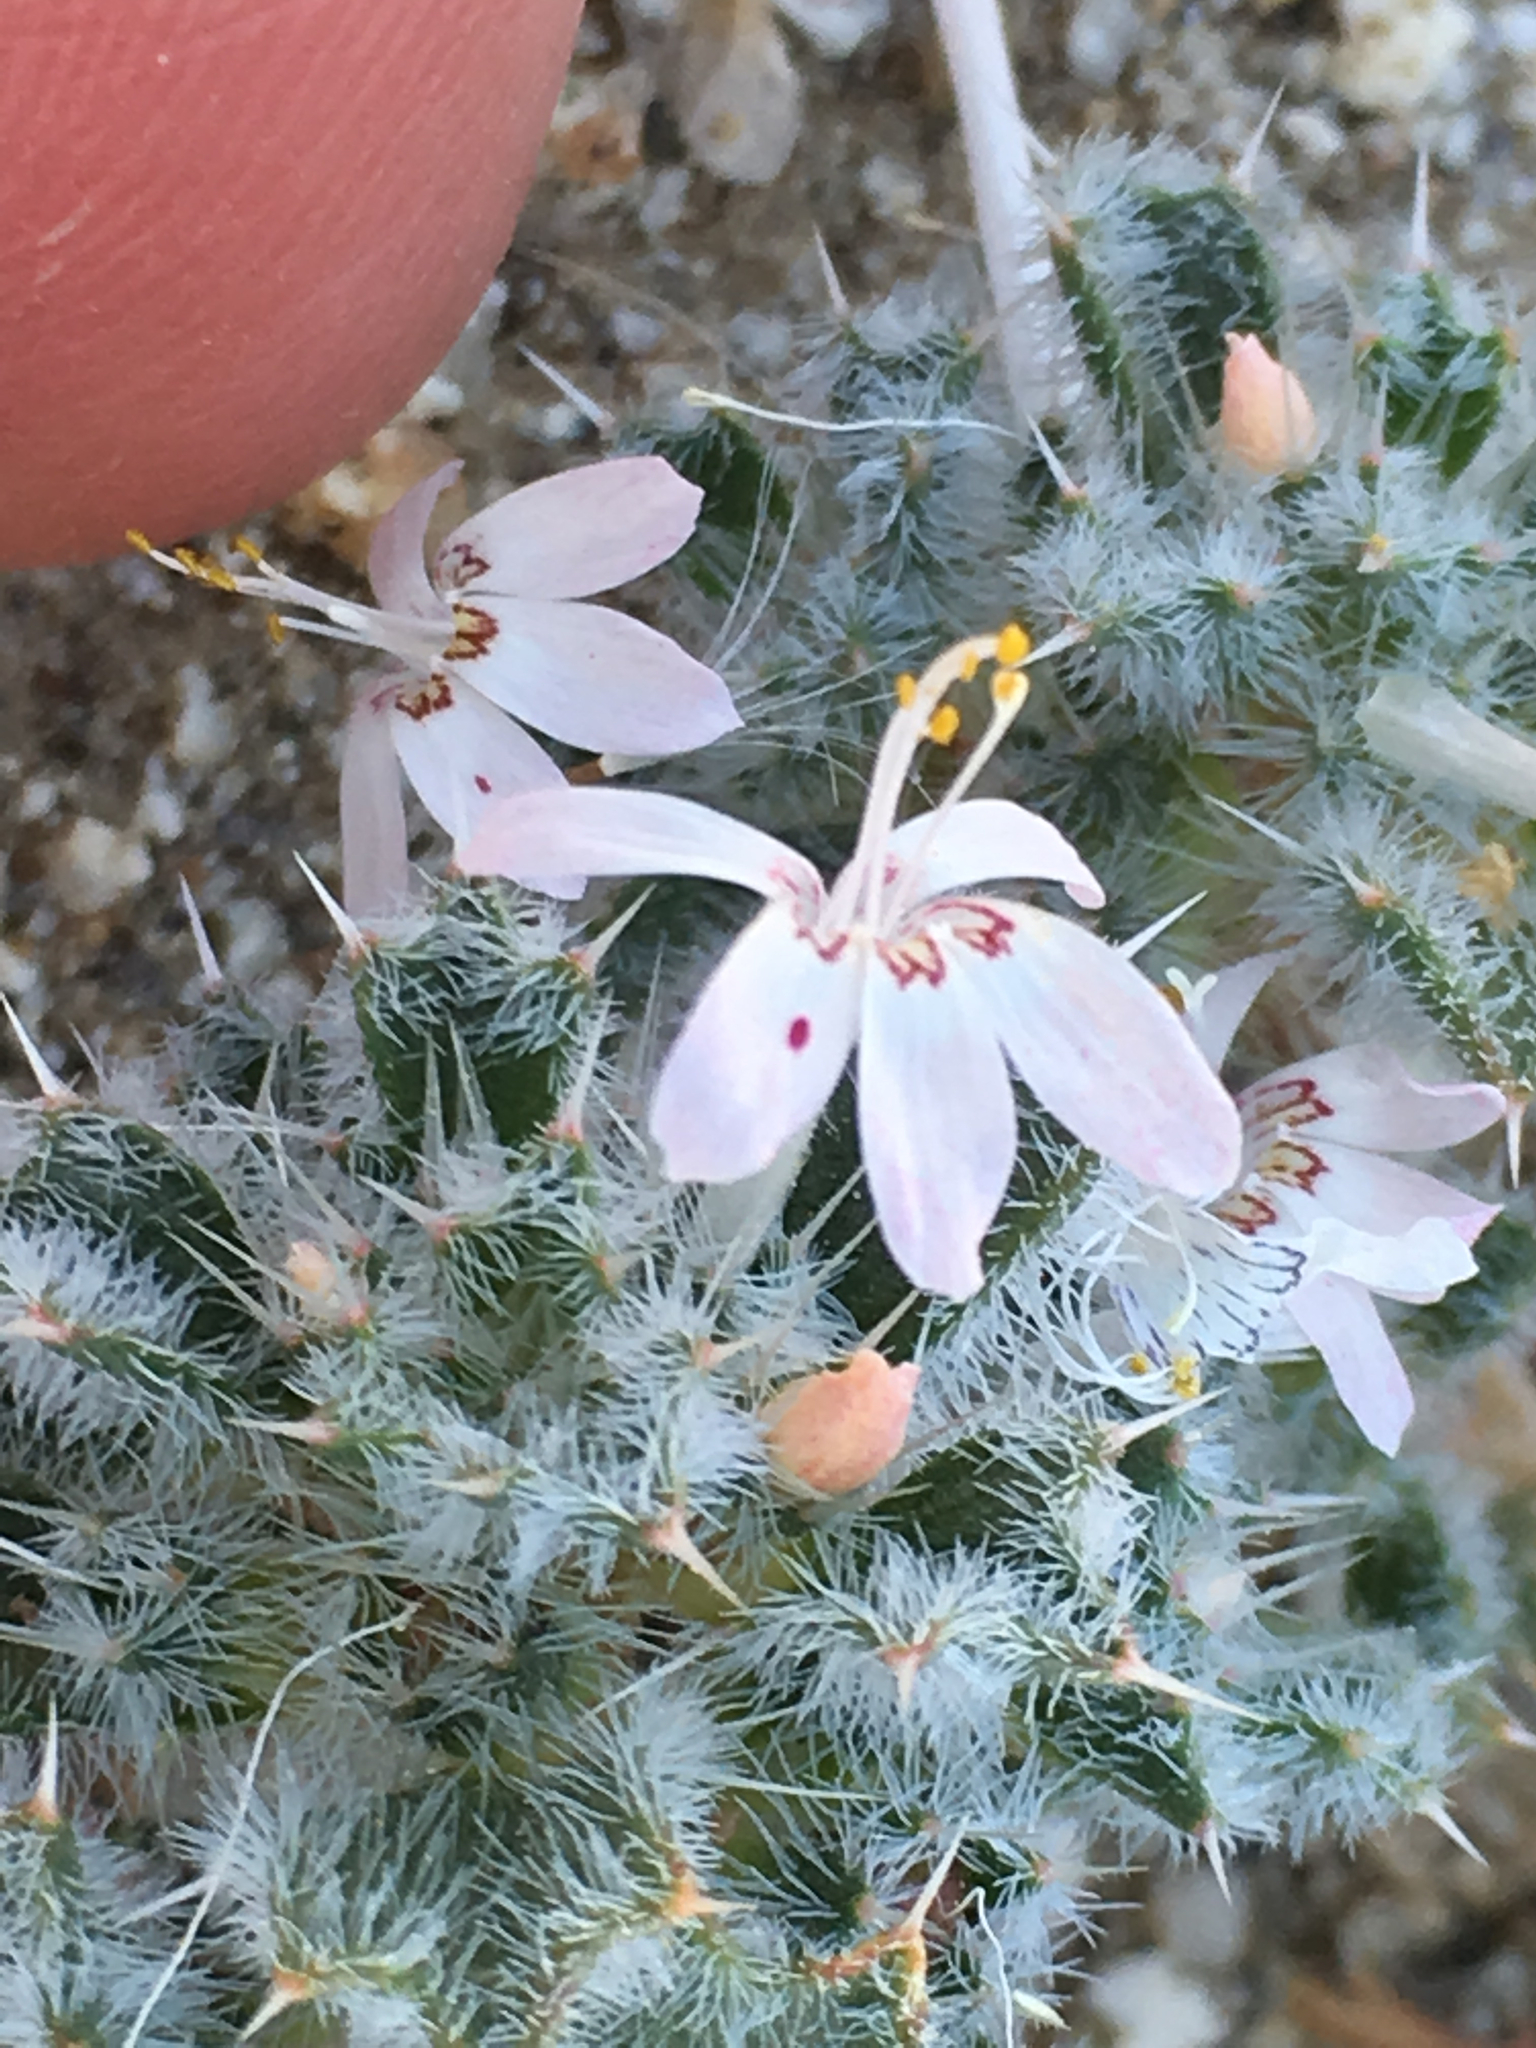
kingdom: Plantae
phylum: Tracheophyta
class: Magnoliopsida
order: Ericales
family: Polemoniaceae
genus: Loeseliastrum
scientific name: Loeseliastrum matthewsii
